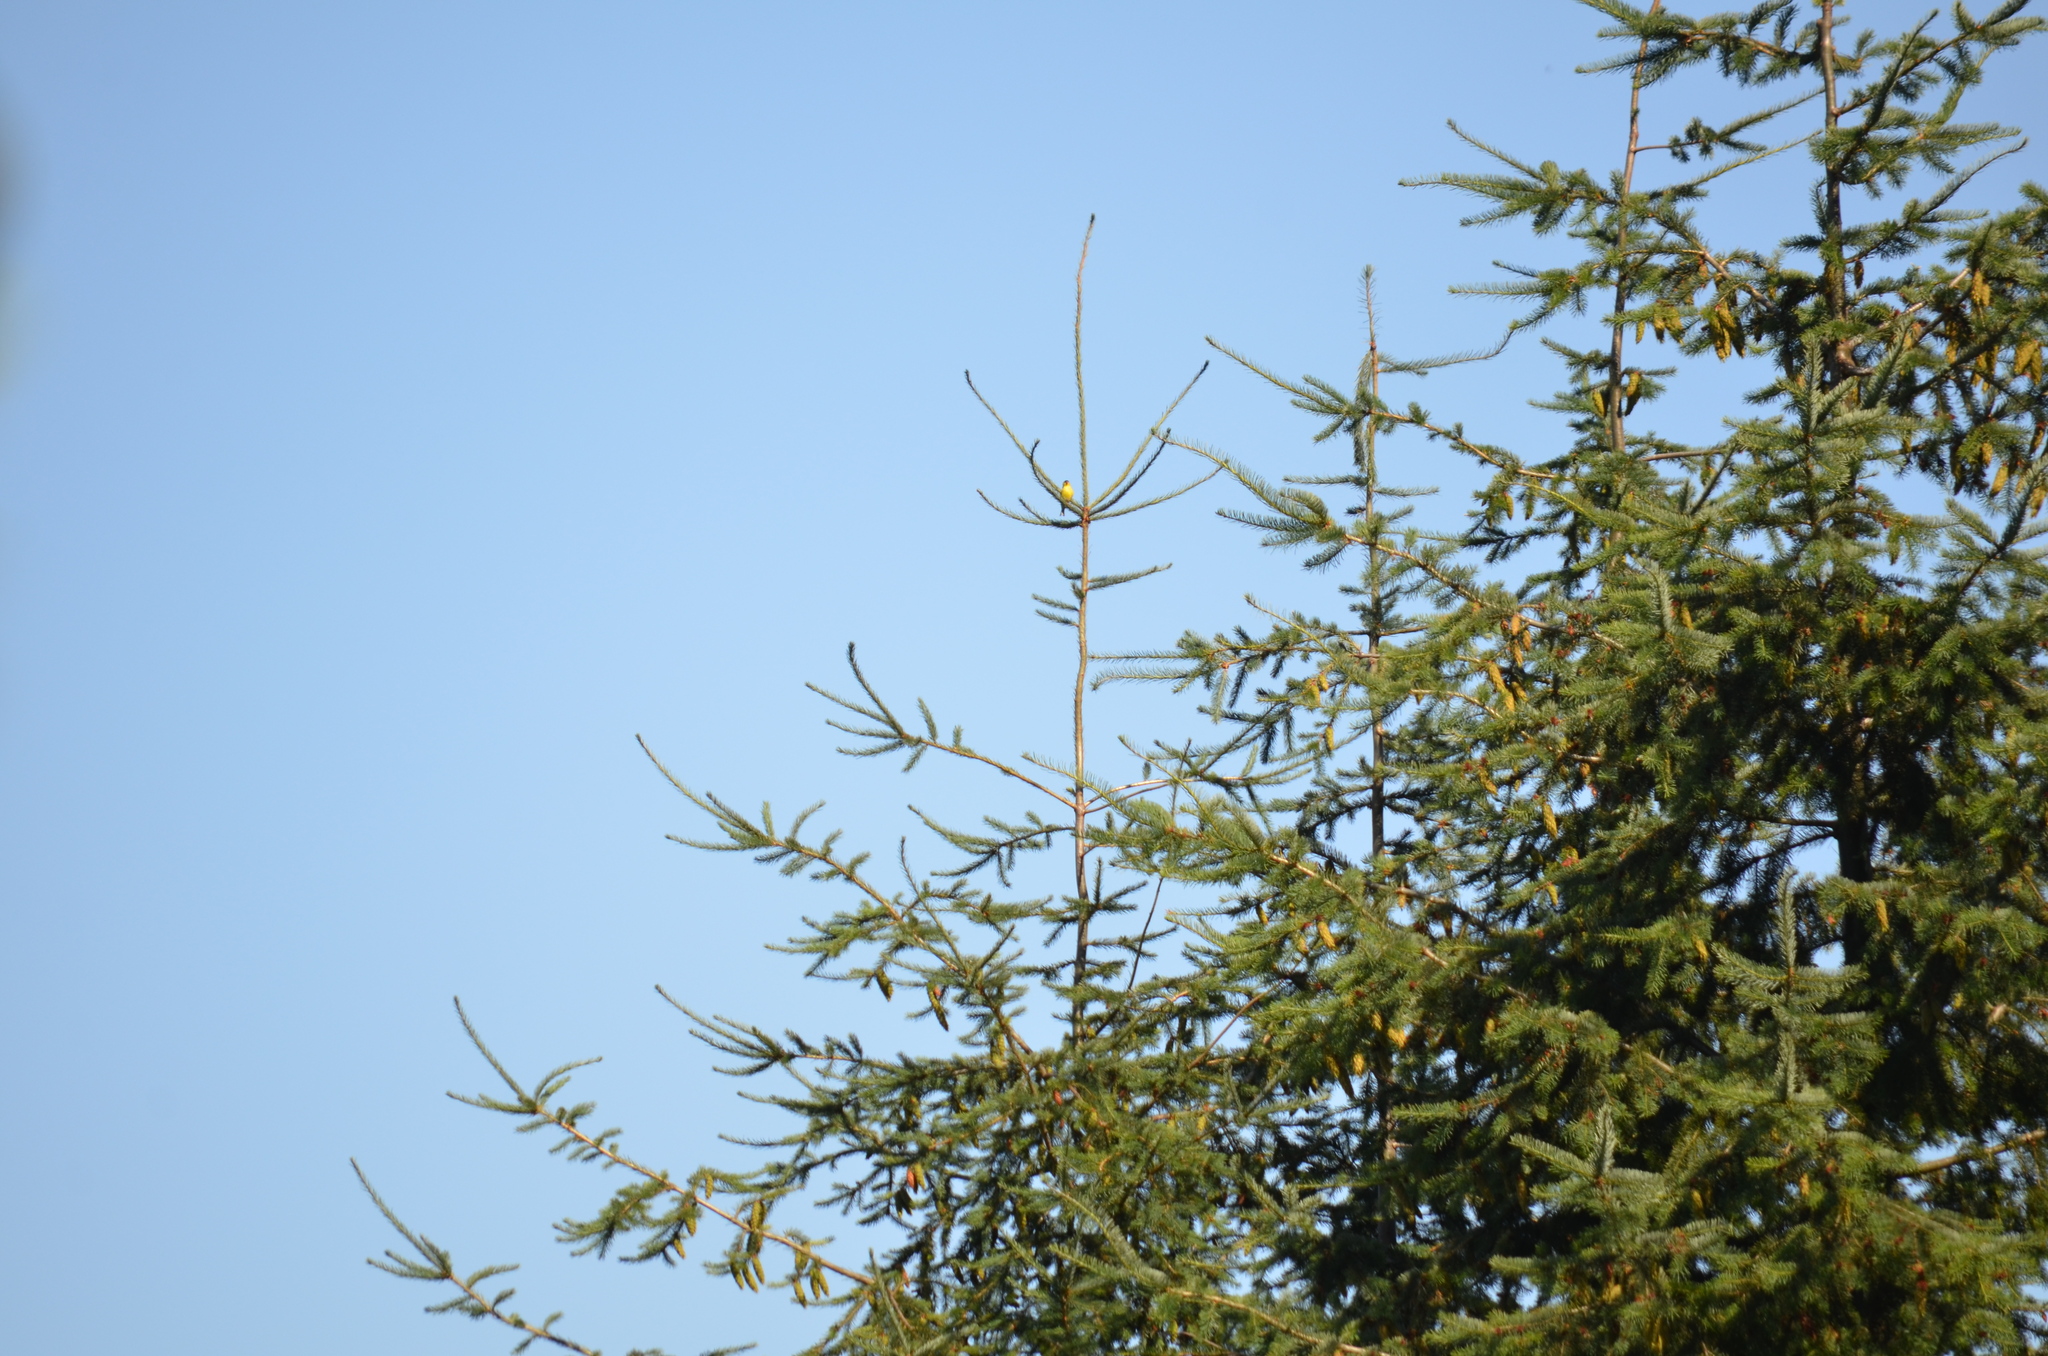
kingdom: Animalia
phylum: Chordata
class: Aves
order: Passeriformes
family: Fringillidae
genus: Spinus
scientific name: Spinus tristis
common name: American goldfinch
